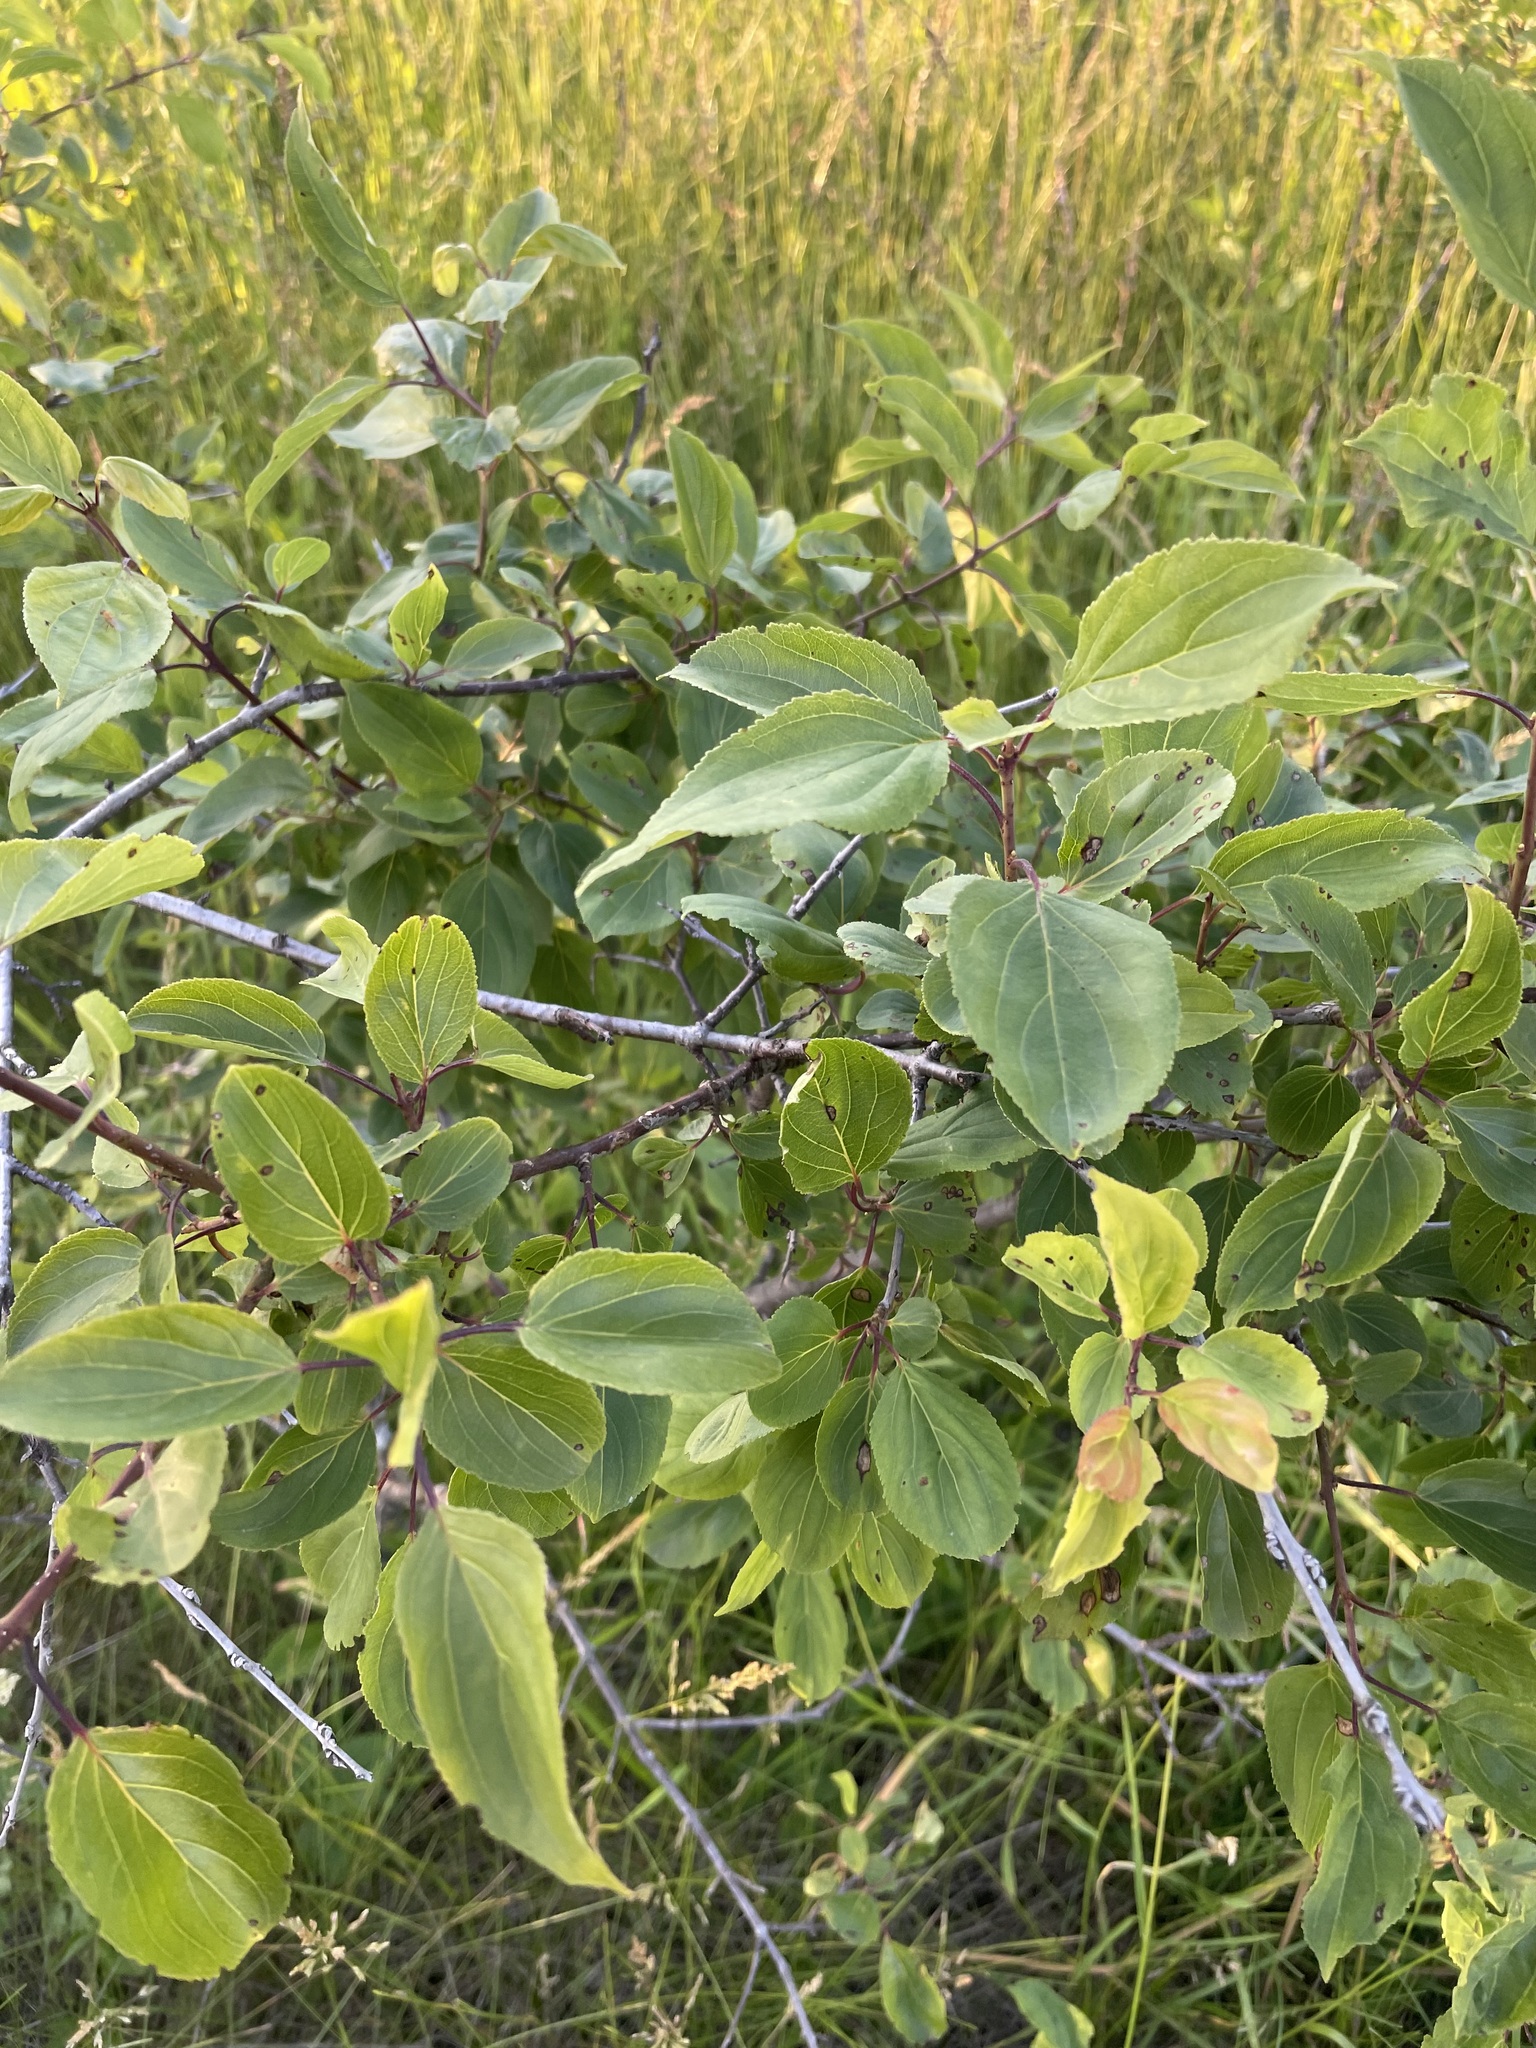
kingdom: Plantae
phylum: Tracheophyta
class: Magnoliopsida
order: Rosales
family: Rhamnaceae
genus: Rhamnus
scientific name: Rhamnus cathartica
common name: Common buckthorn
